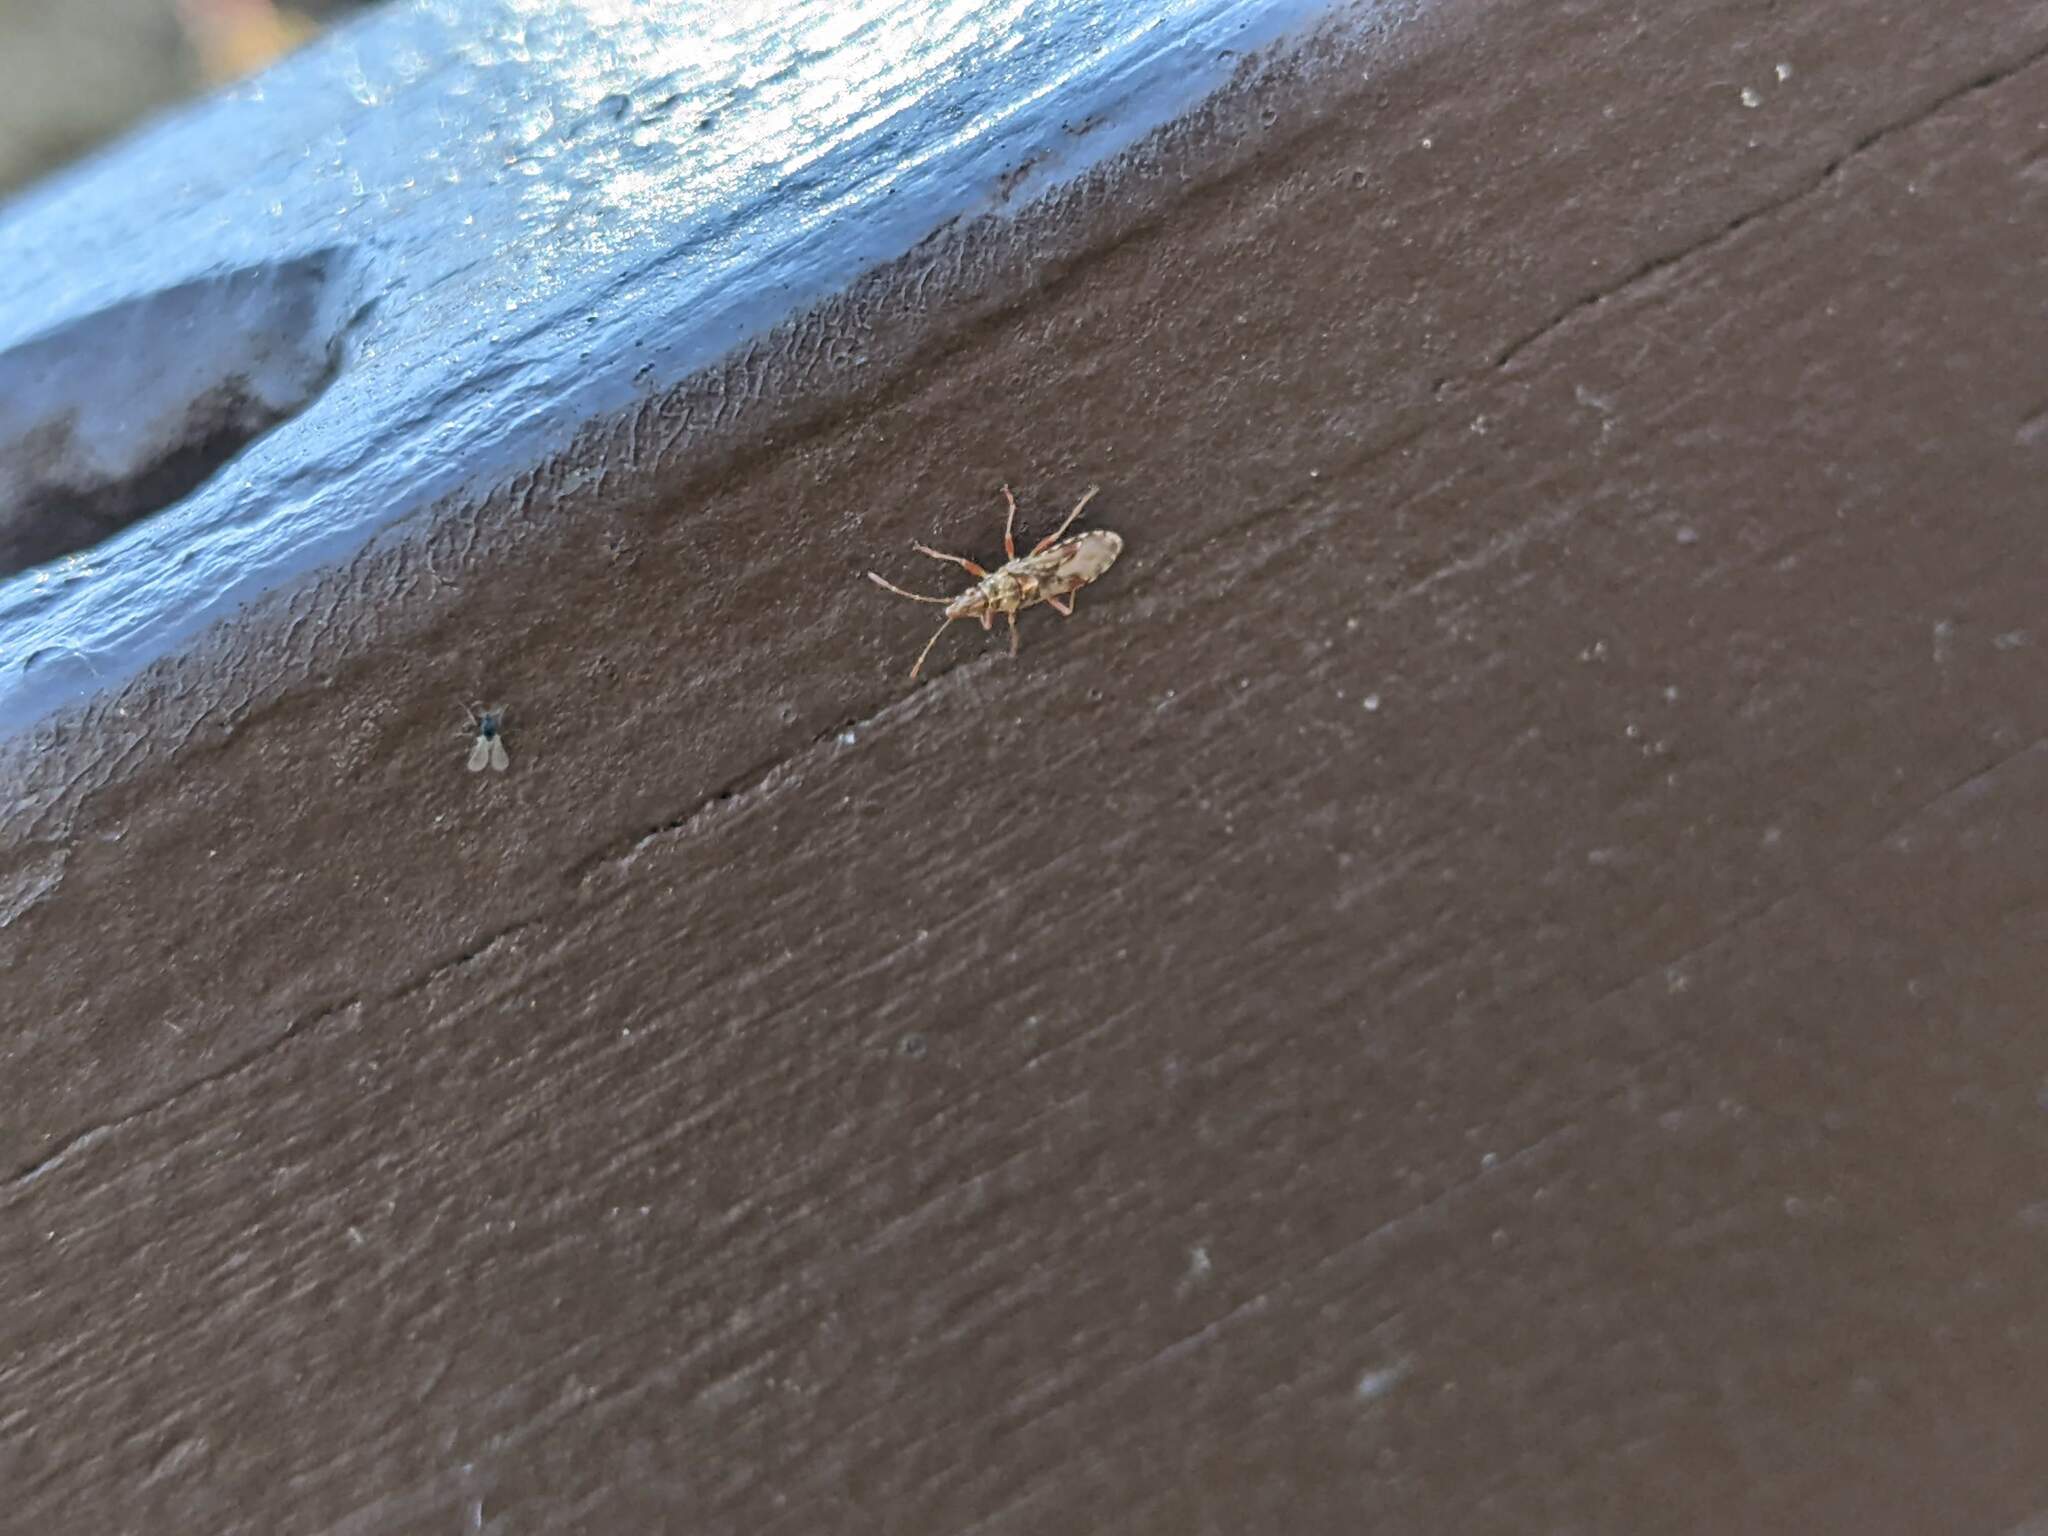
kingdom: Animalia
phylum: Arthropoda
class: Insecta
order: Hemiptera
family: Lygaeidae
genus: Belonochilus
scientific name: Belonochilus numenius
